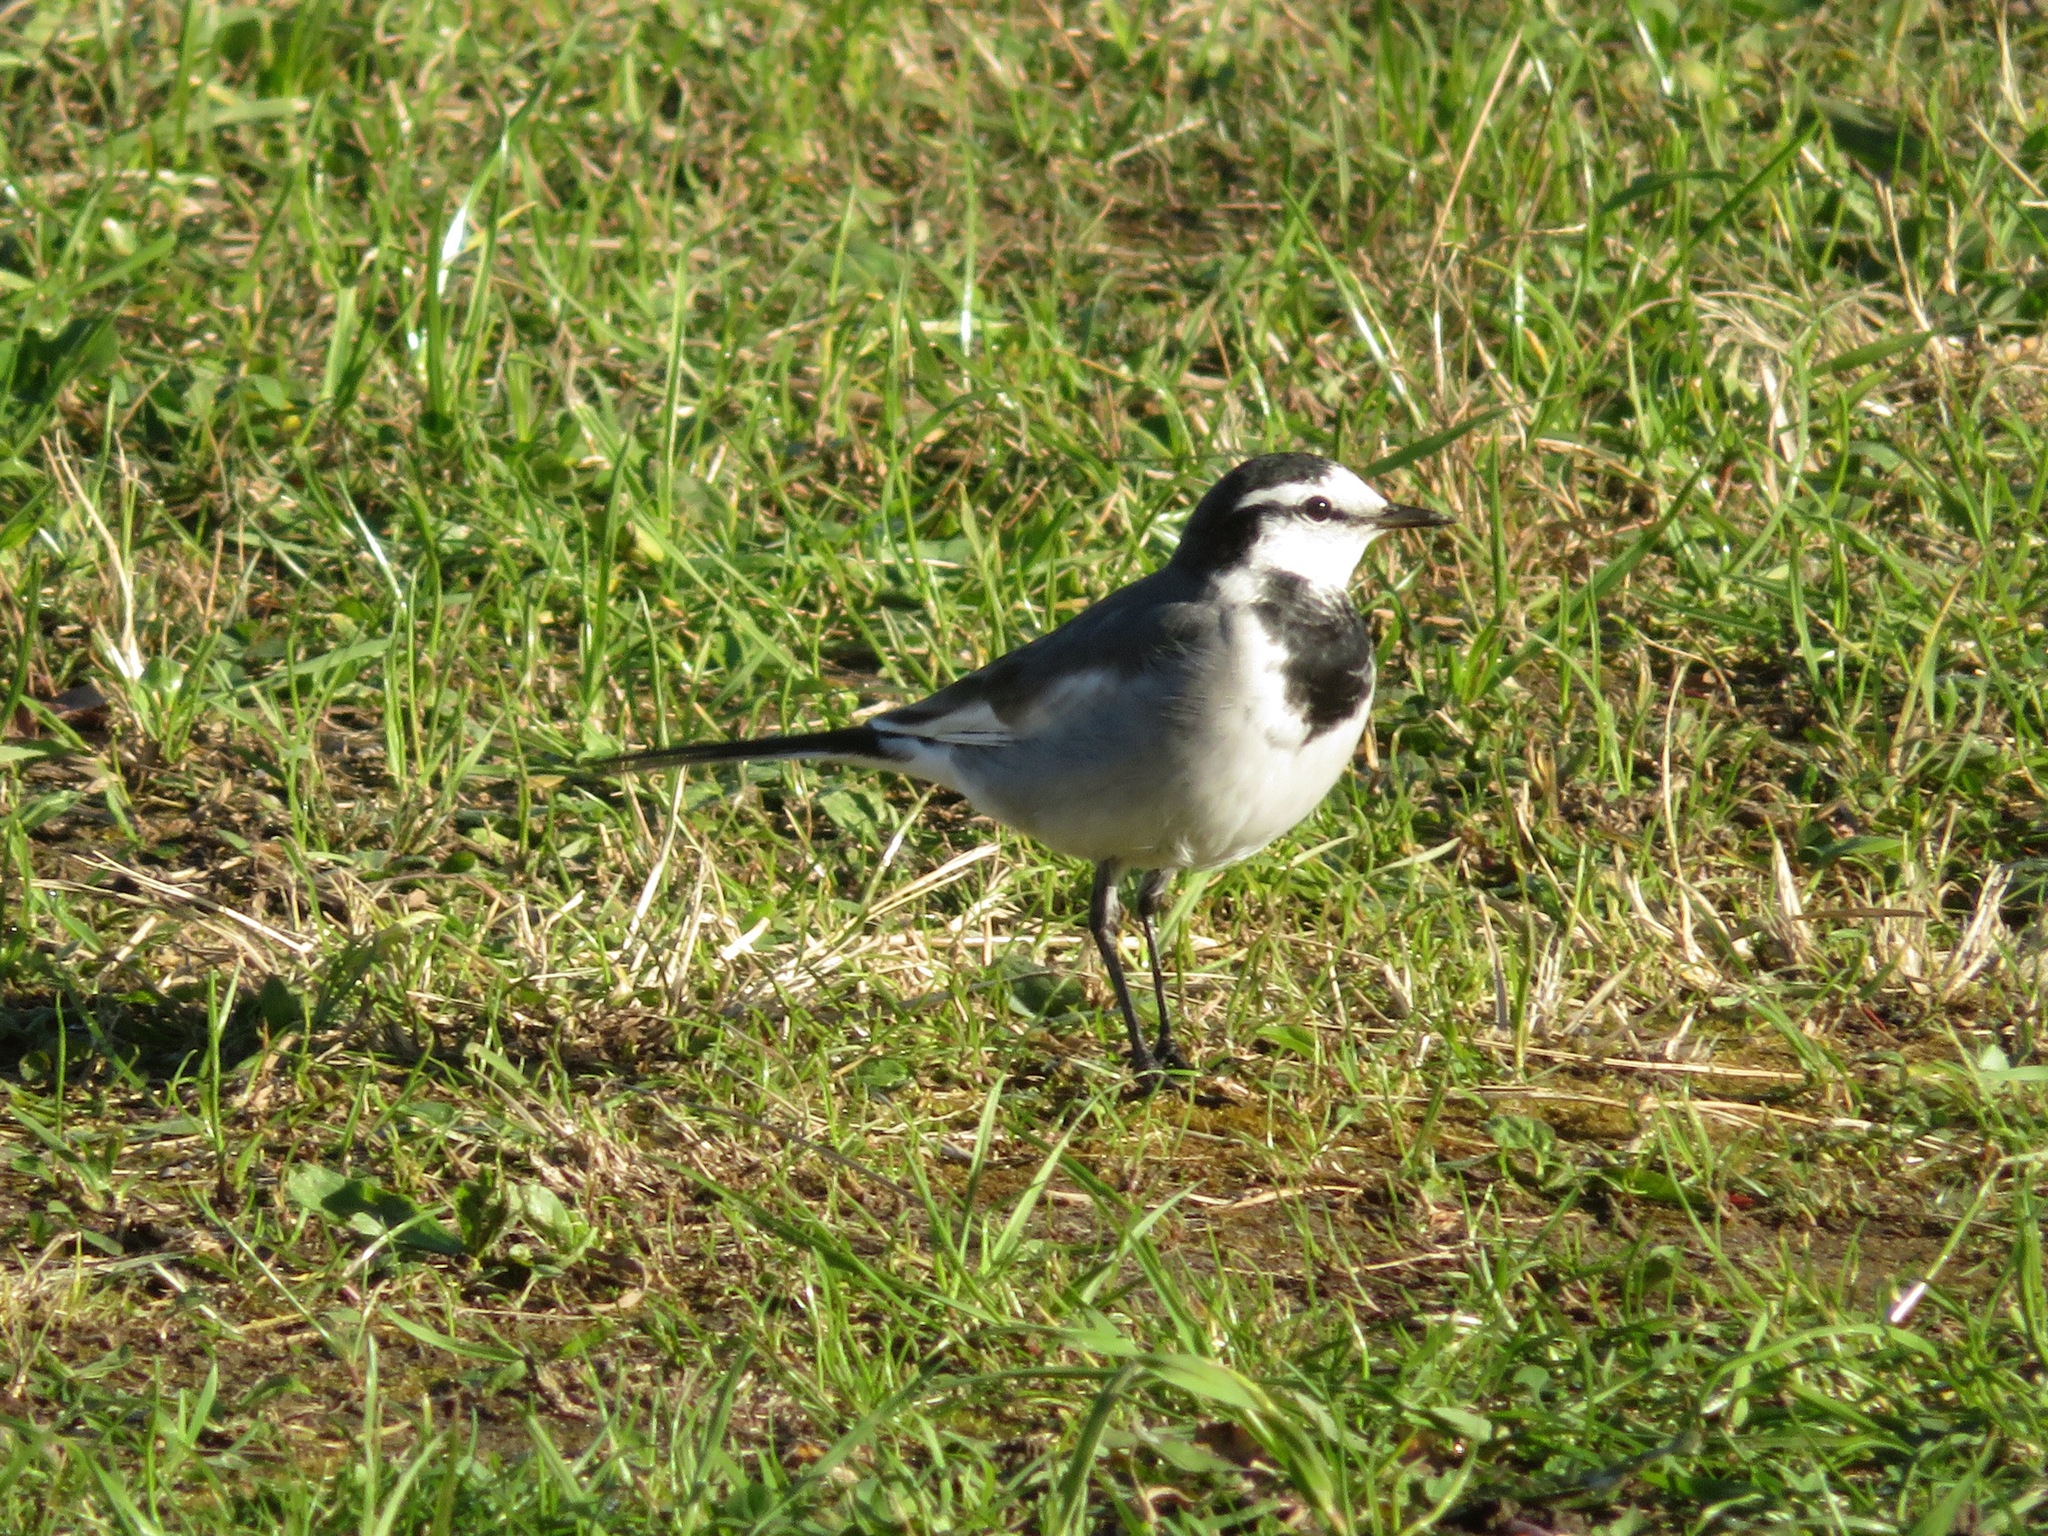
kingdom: Animalia
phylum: Chordata
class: Aves
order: Passeriformes
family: Motacillidae
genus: Motacilla
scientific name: Motacilla alba
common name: White wagtail
